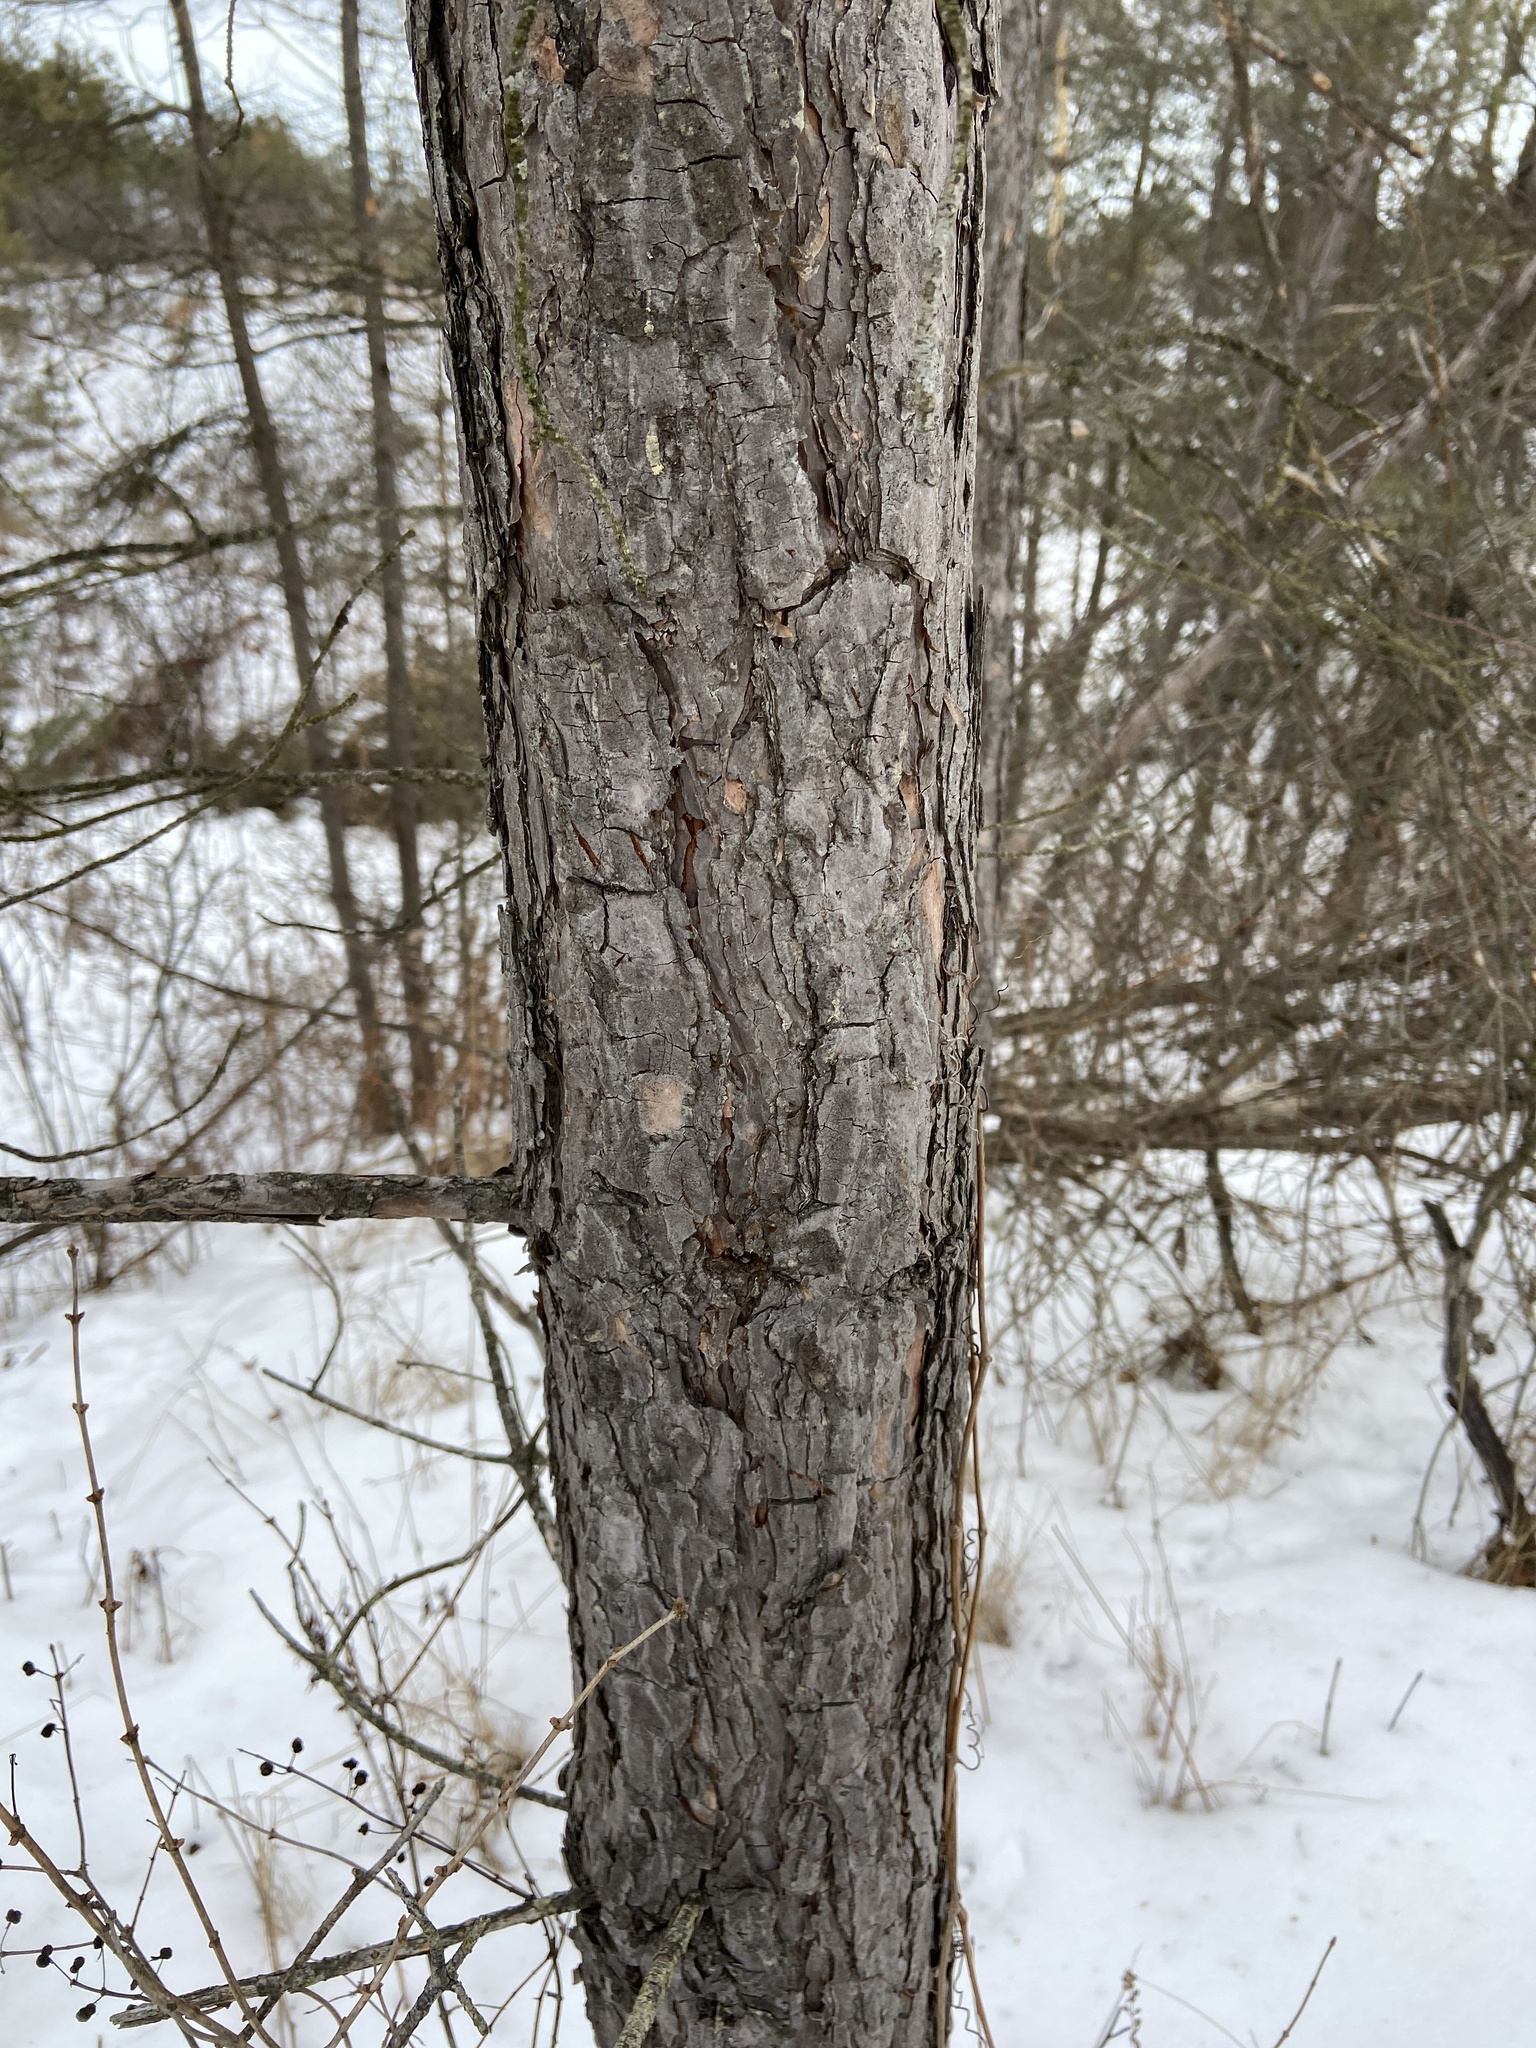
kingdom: Plantae
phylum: Tracheophyta
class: Pinopsida
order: Pinales
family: Pinaceae
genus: Pinus
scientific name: Pinus sylvestris
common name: Scots pine
